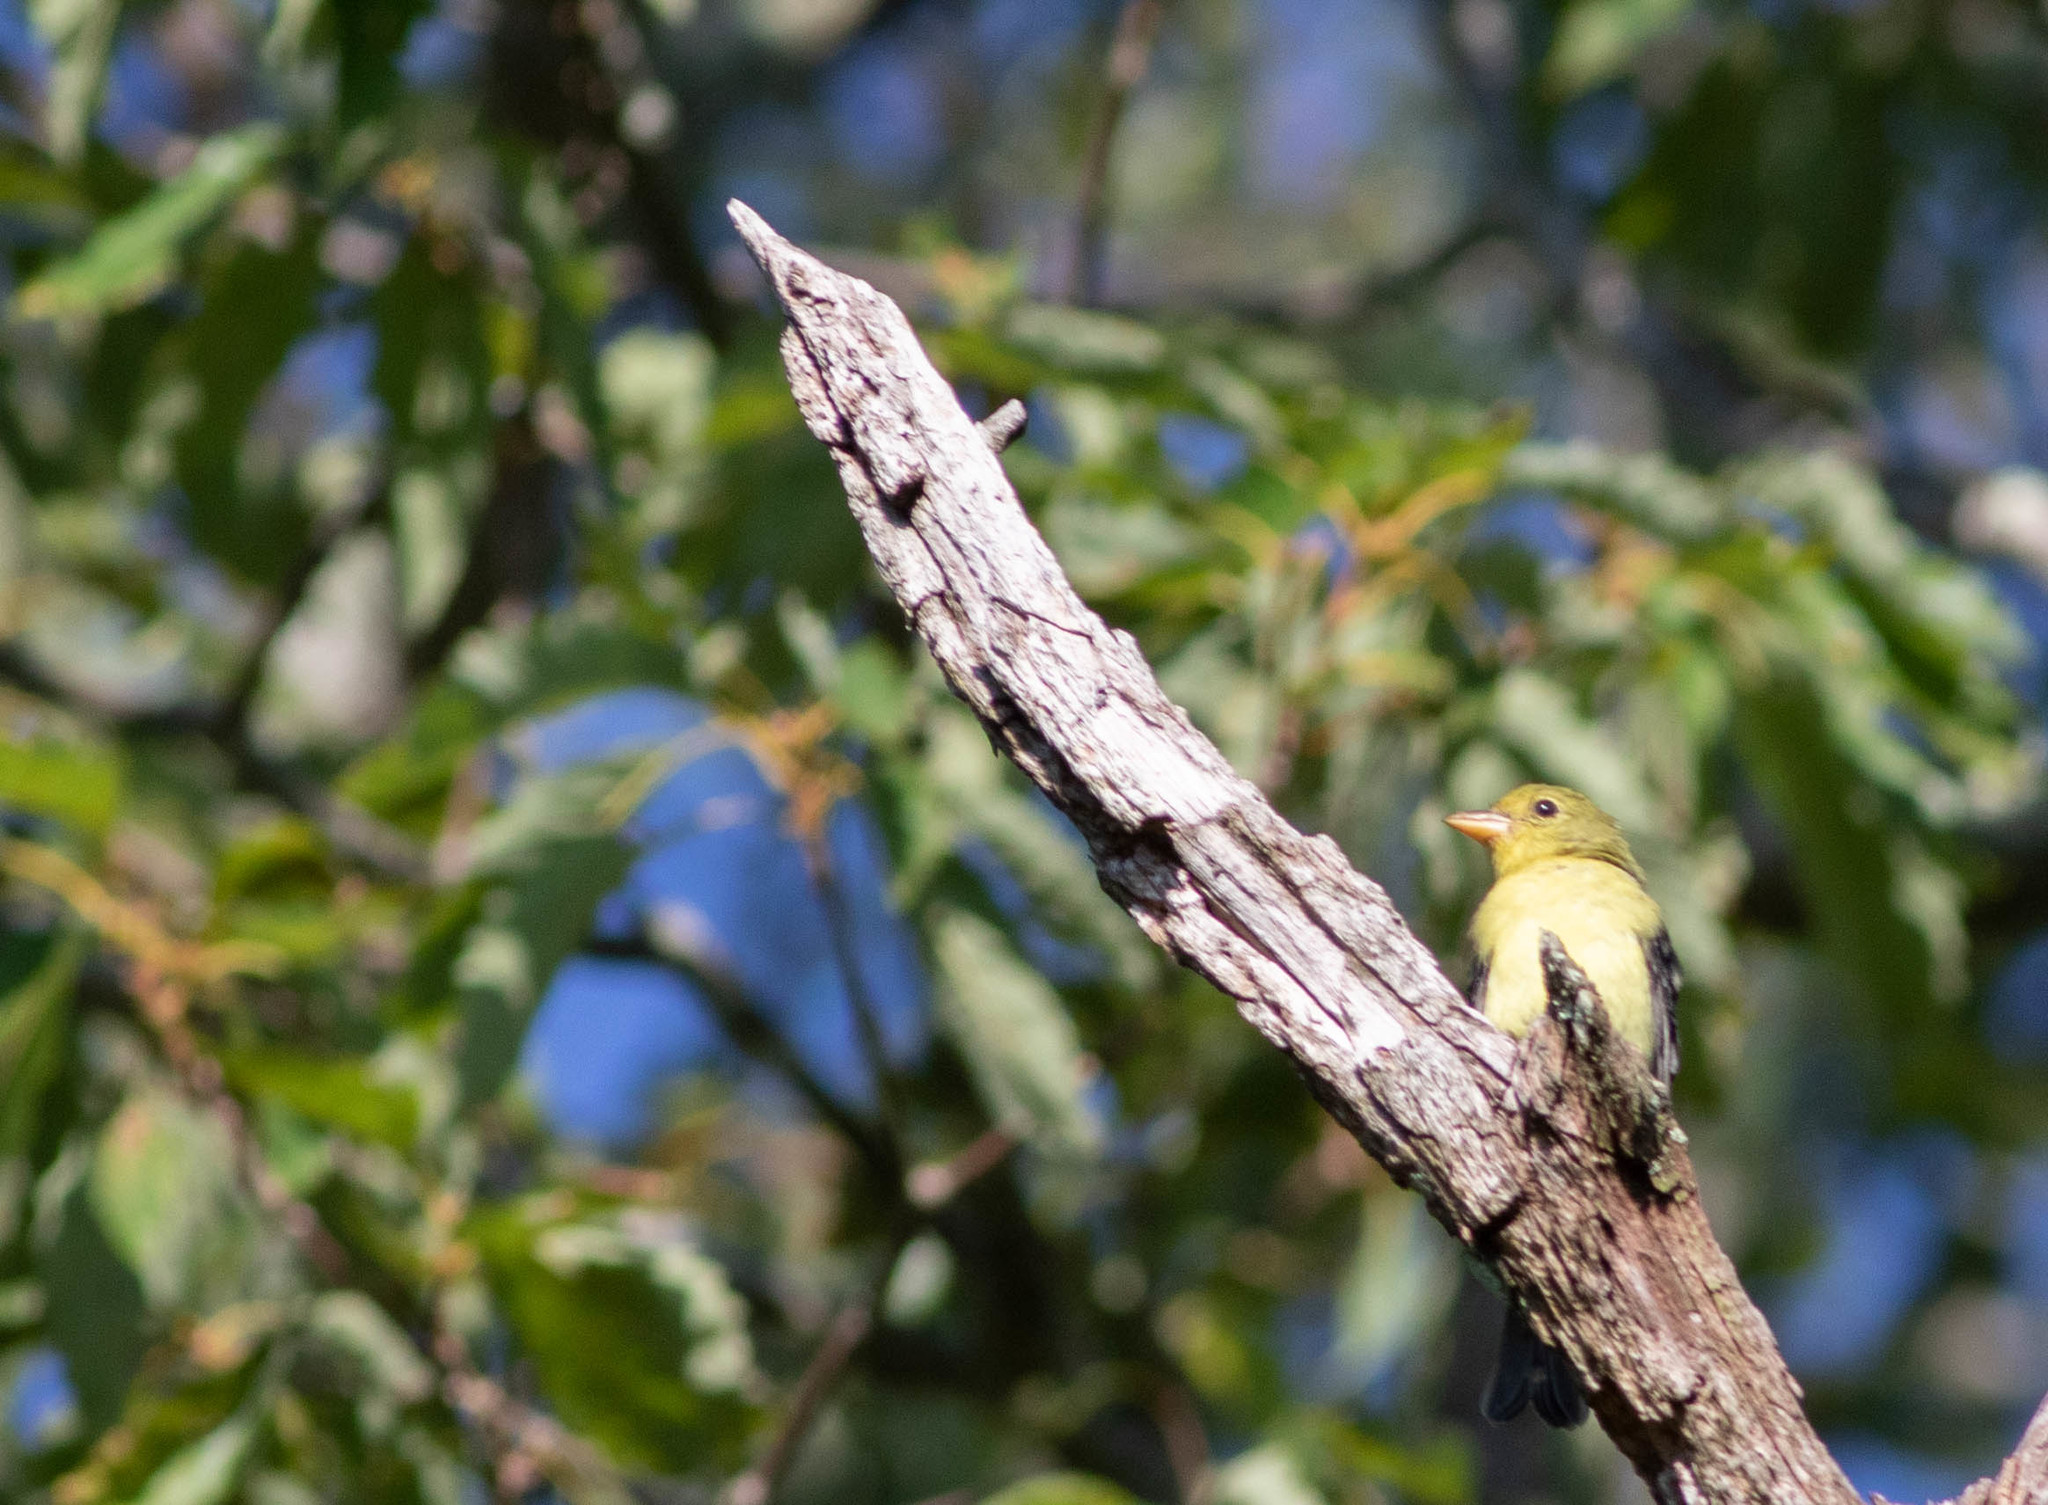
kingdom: Animalia
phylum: Chordata
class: Aves
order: Passeriformes
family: Cardinalidae
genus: Piranga
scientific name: Piranga olivacea
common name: Scarlet tanager
